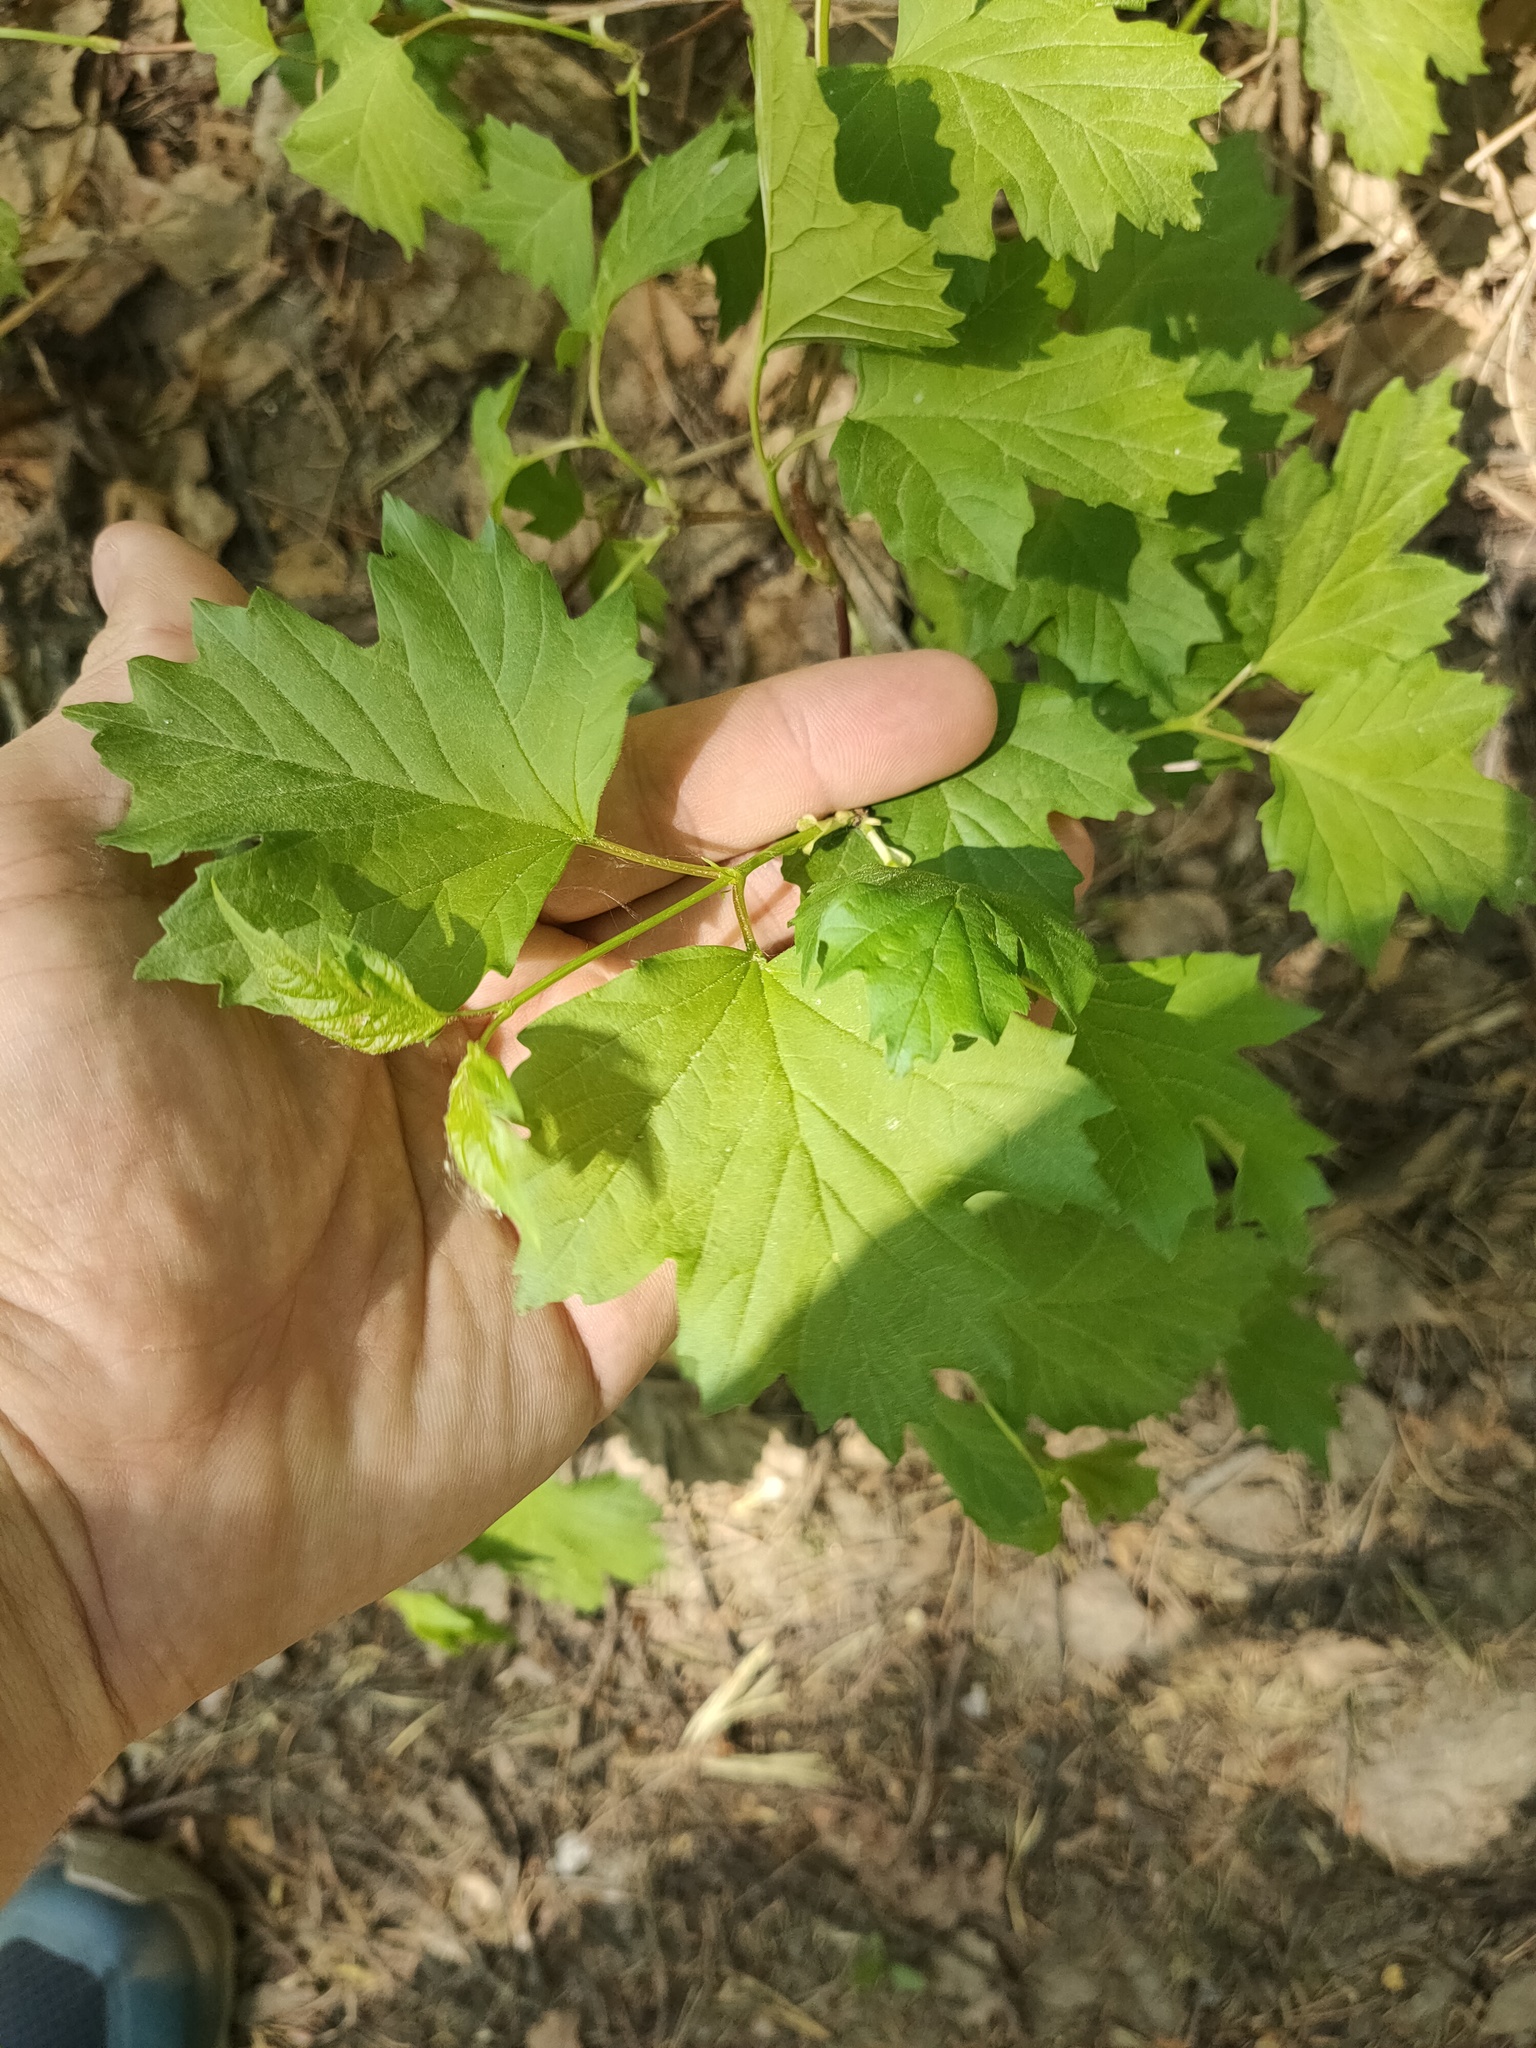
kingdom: Plantae
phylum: Tracheophyta
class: Magnoliopsida
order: Dipsacales
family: Viburnaceae
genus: Viburnum
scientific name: Viburnum opulus
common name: Guelder-rose
